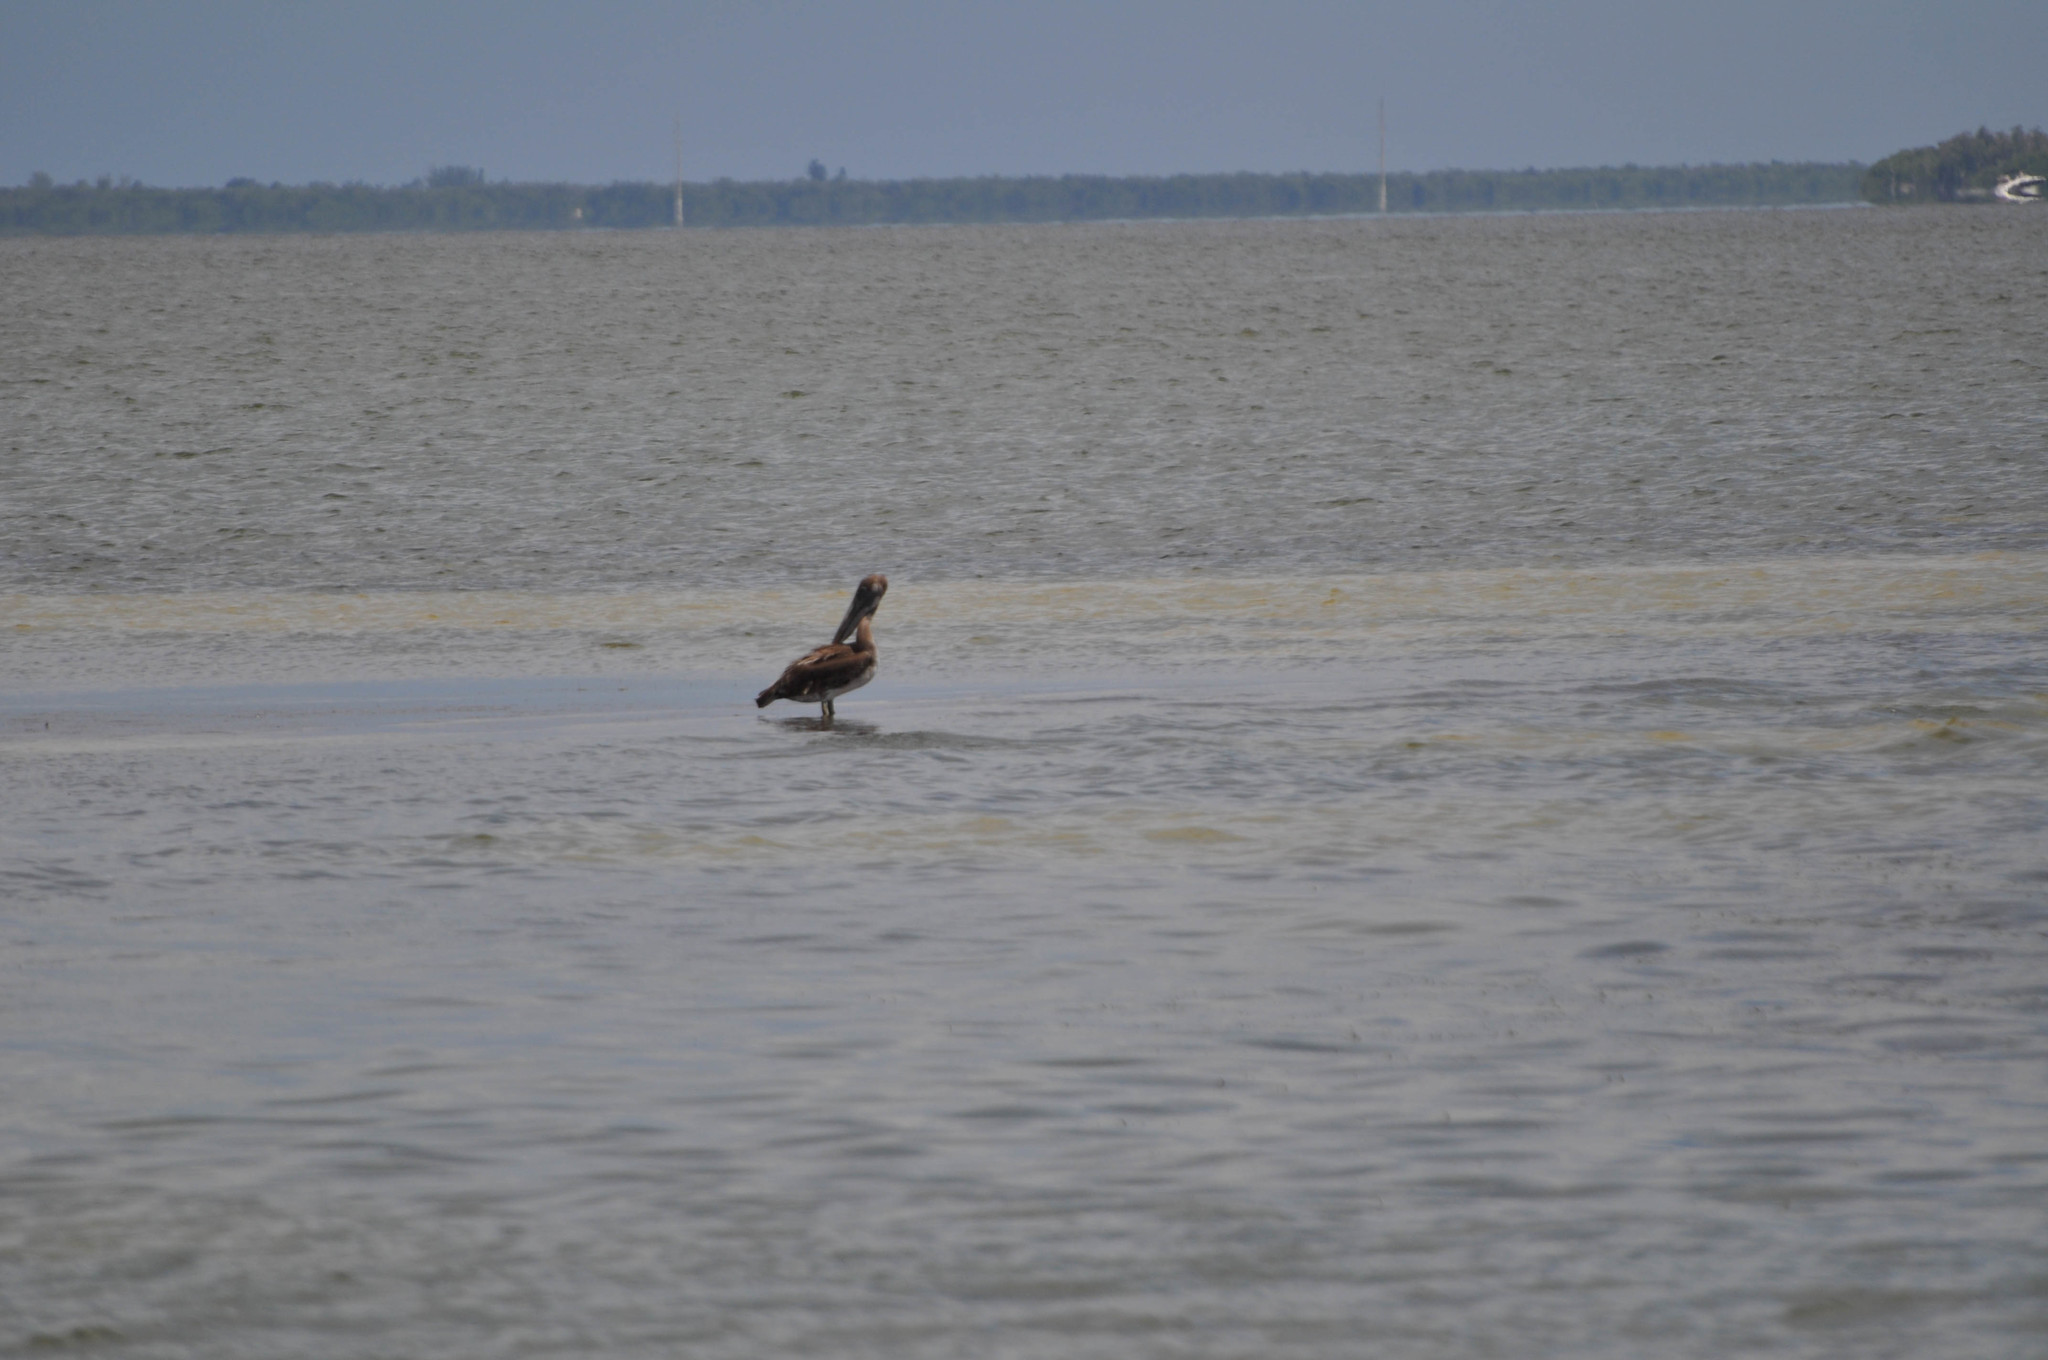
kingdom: Animalia
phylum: Chordata
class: Aves
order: Pelecaniformes
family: Pelecanidae
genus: Pelecanus
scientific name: Pelecanus occidentalis
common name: Brown pelican
